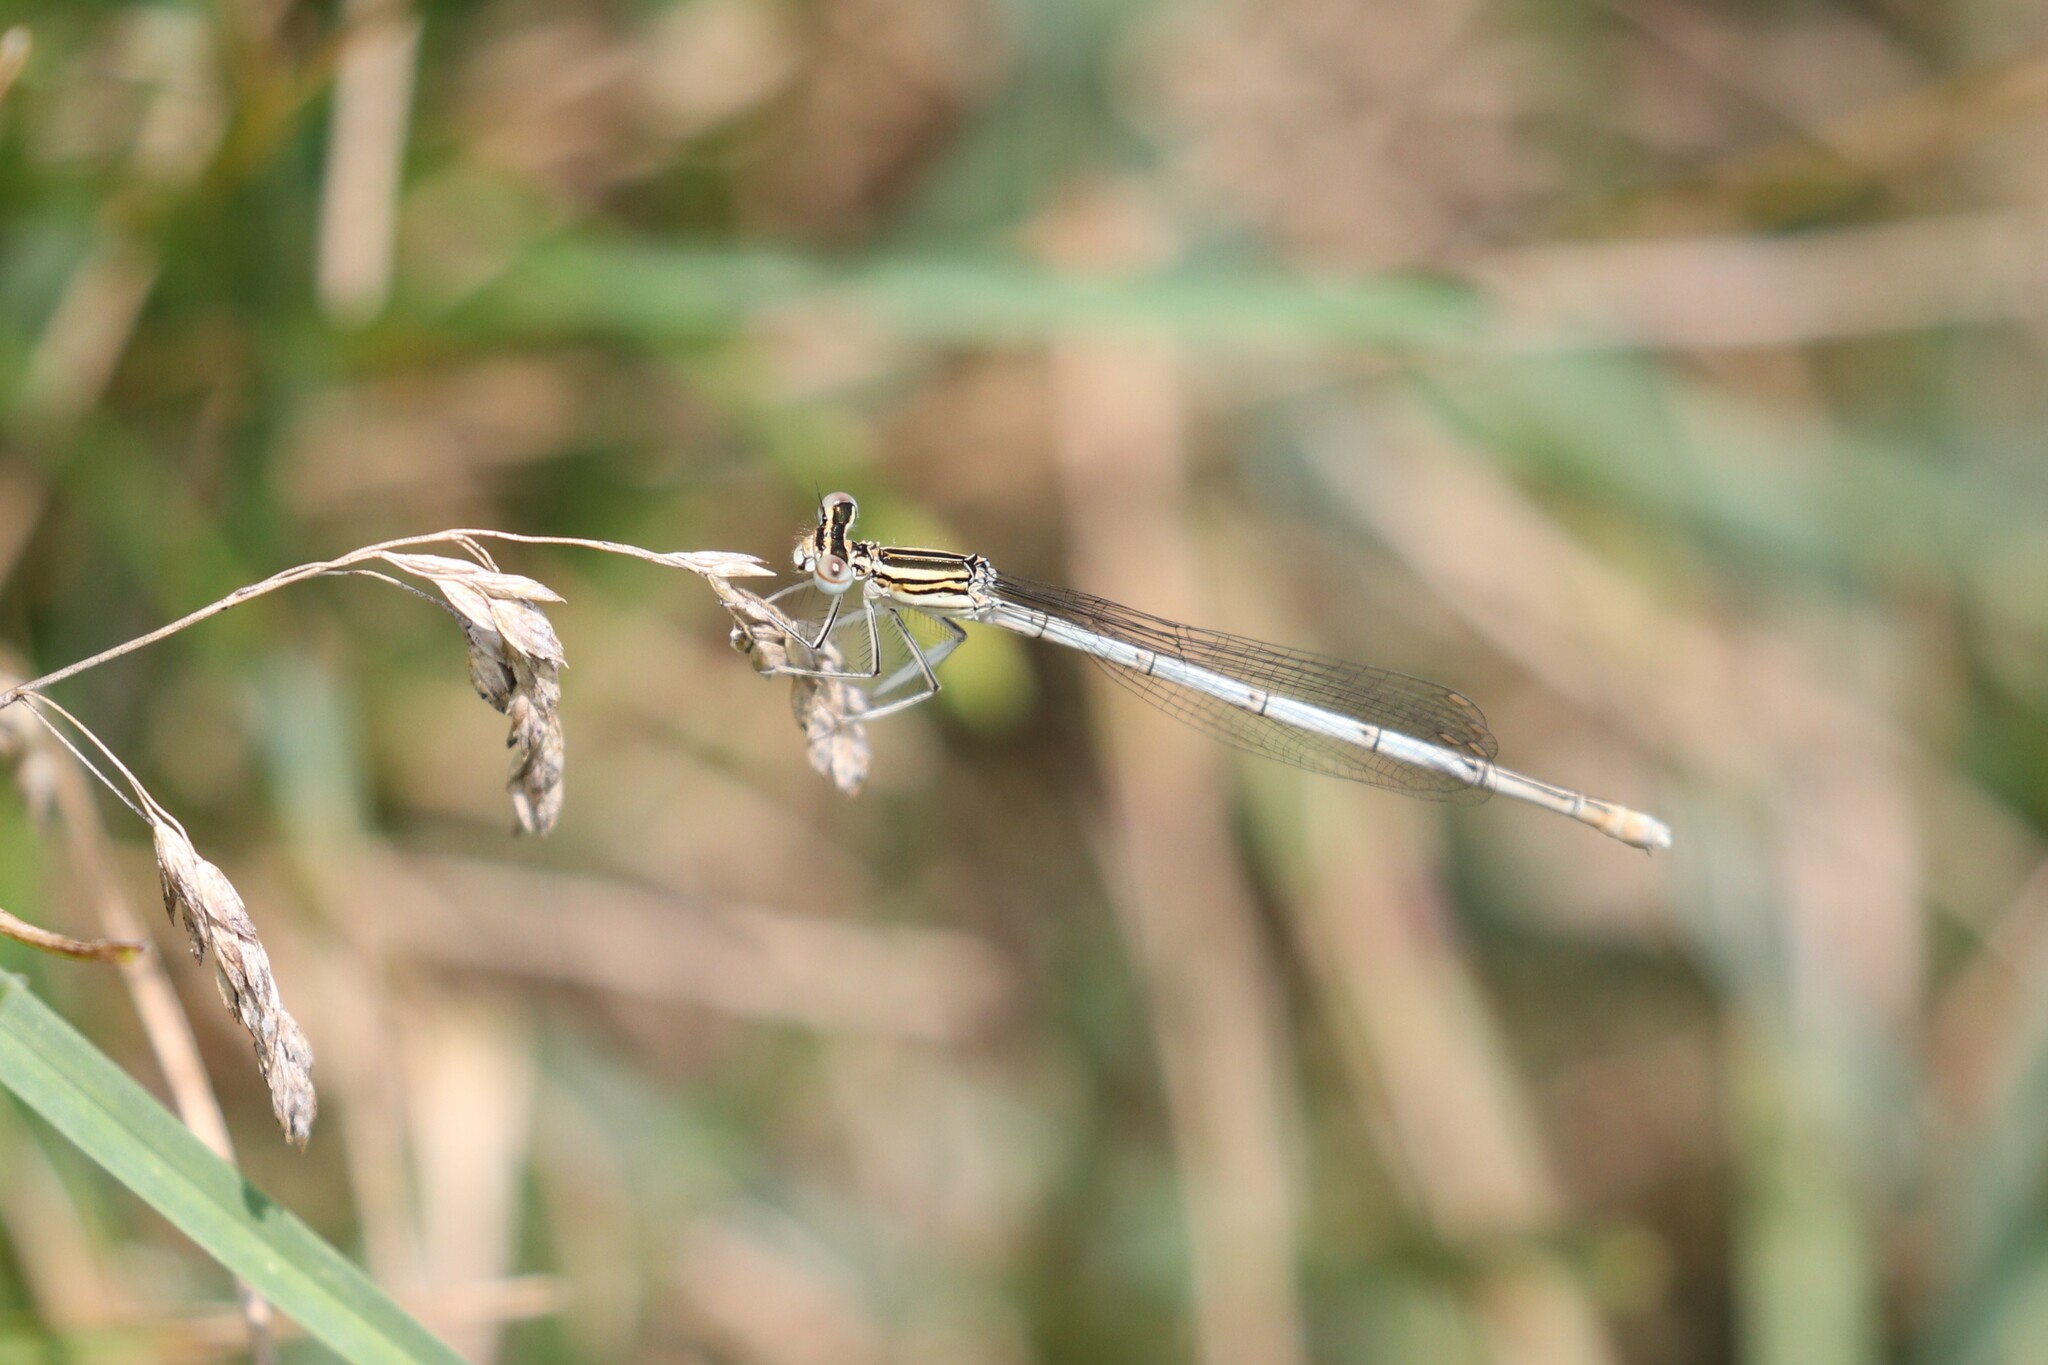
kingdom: Animalia
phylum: Arthropoda
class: Insecta
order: Odonata
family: Platycnemididae
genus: Platycnemis
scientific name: Platycnemis pennipes
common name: White-legged damselfly
